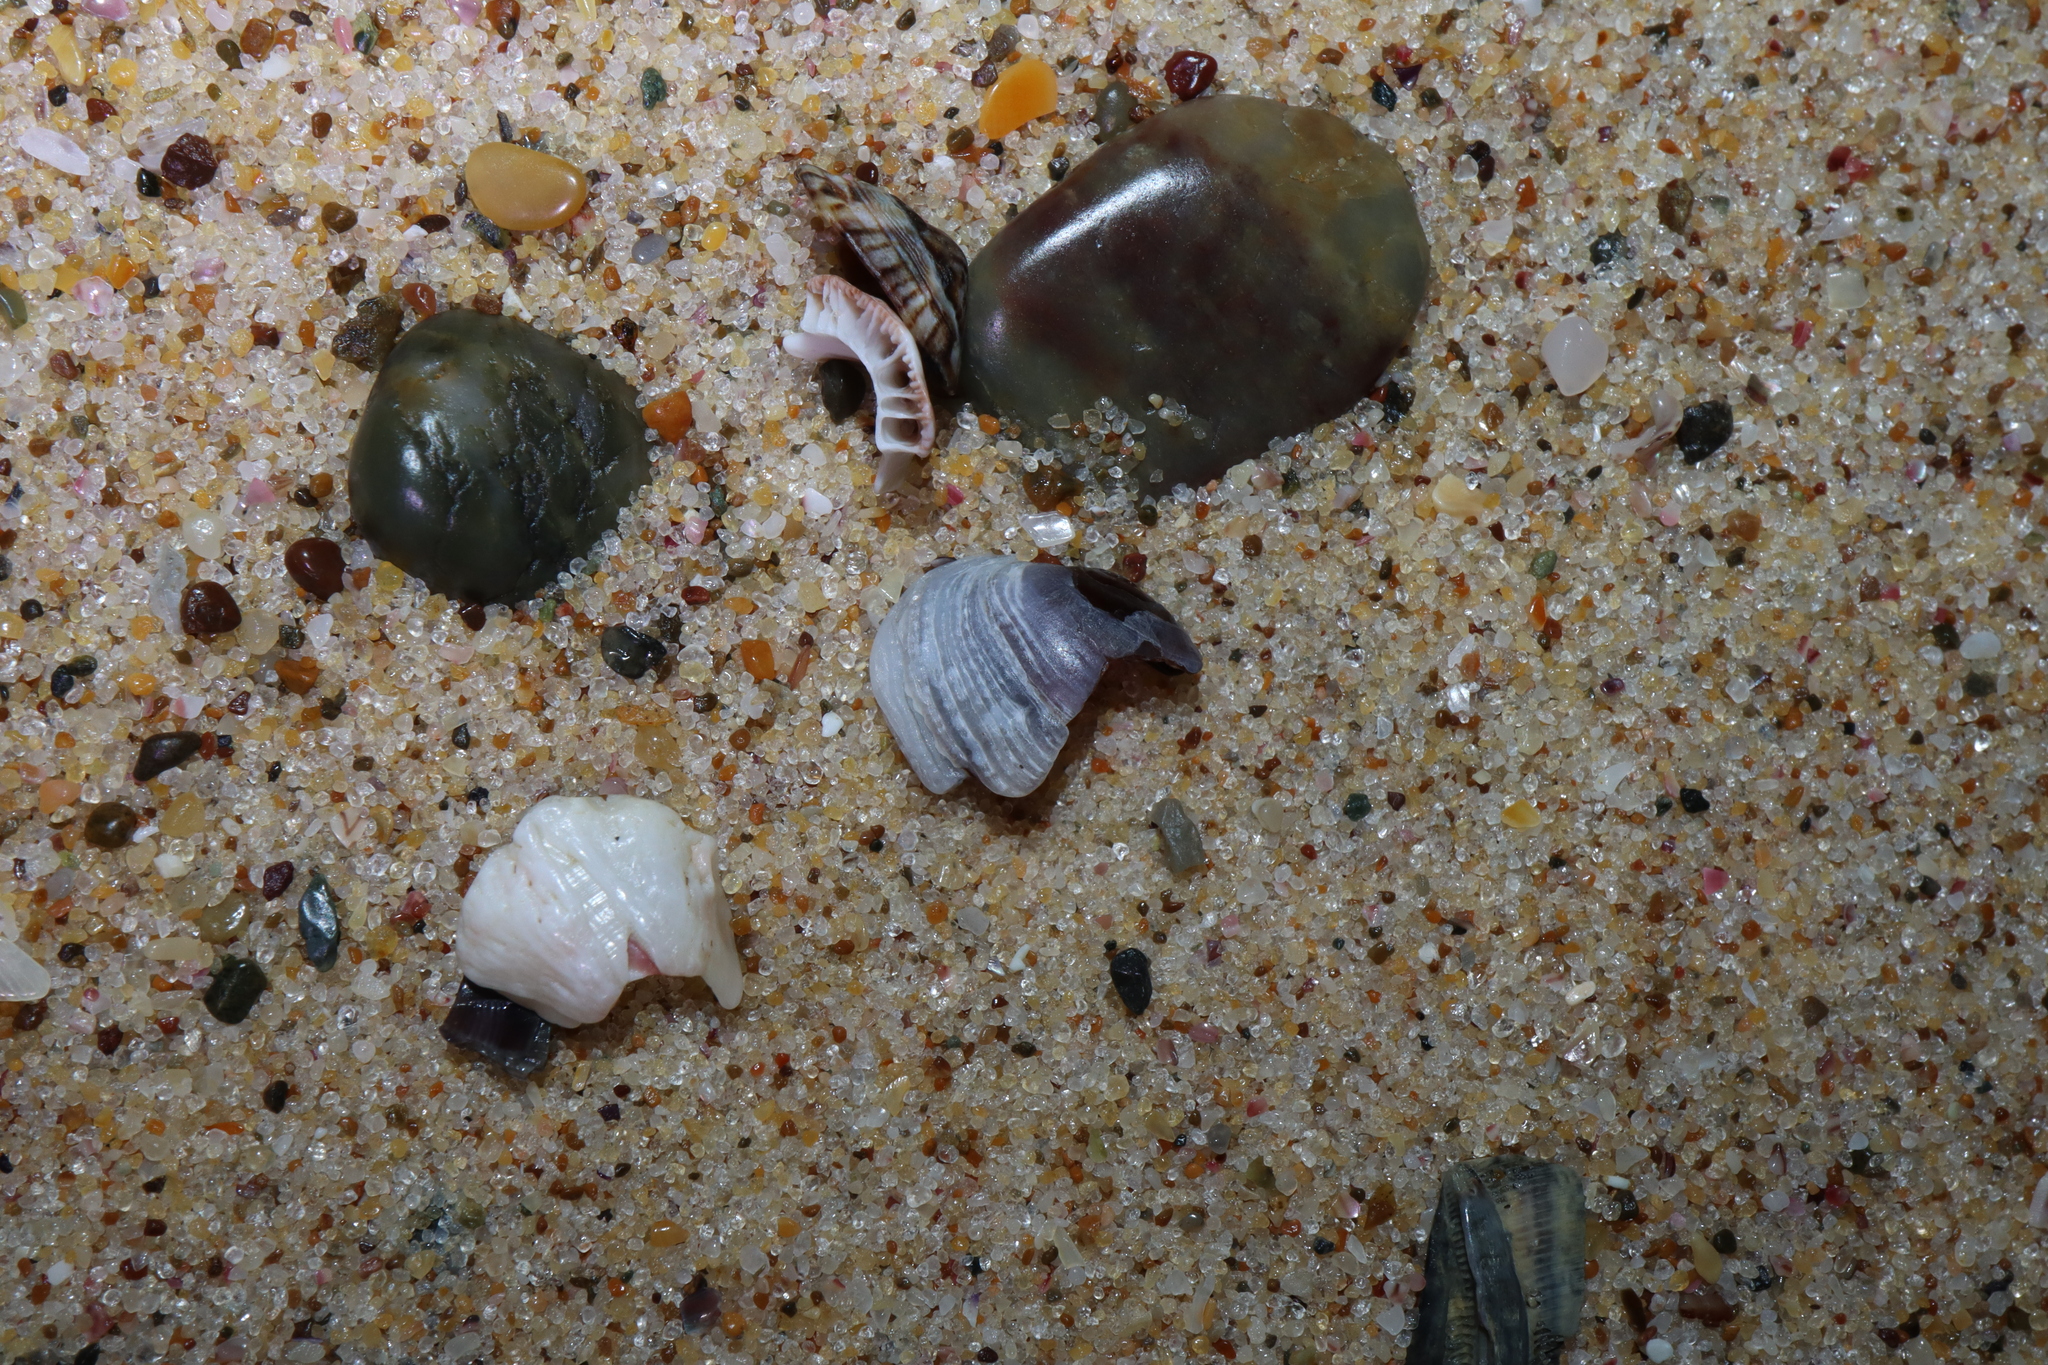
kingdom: Animalia
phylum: Mollusca
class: Bivalvia
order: Venerida
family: Veneridae
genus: Irus
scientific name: Irus cumingii
